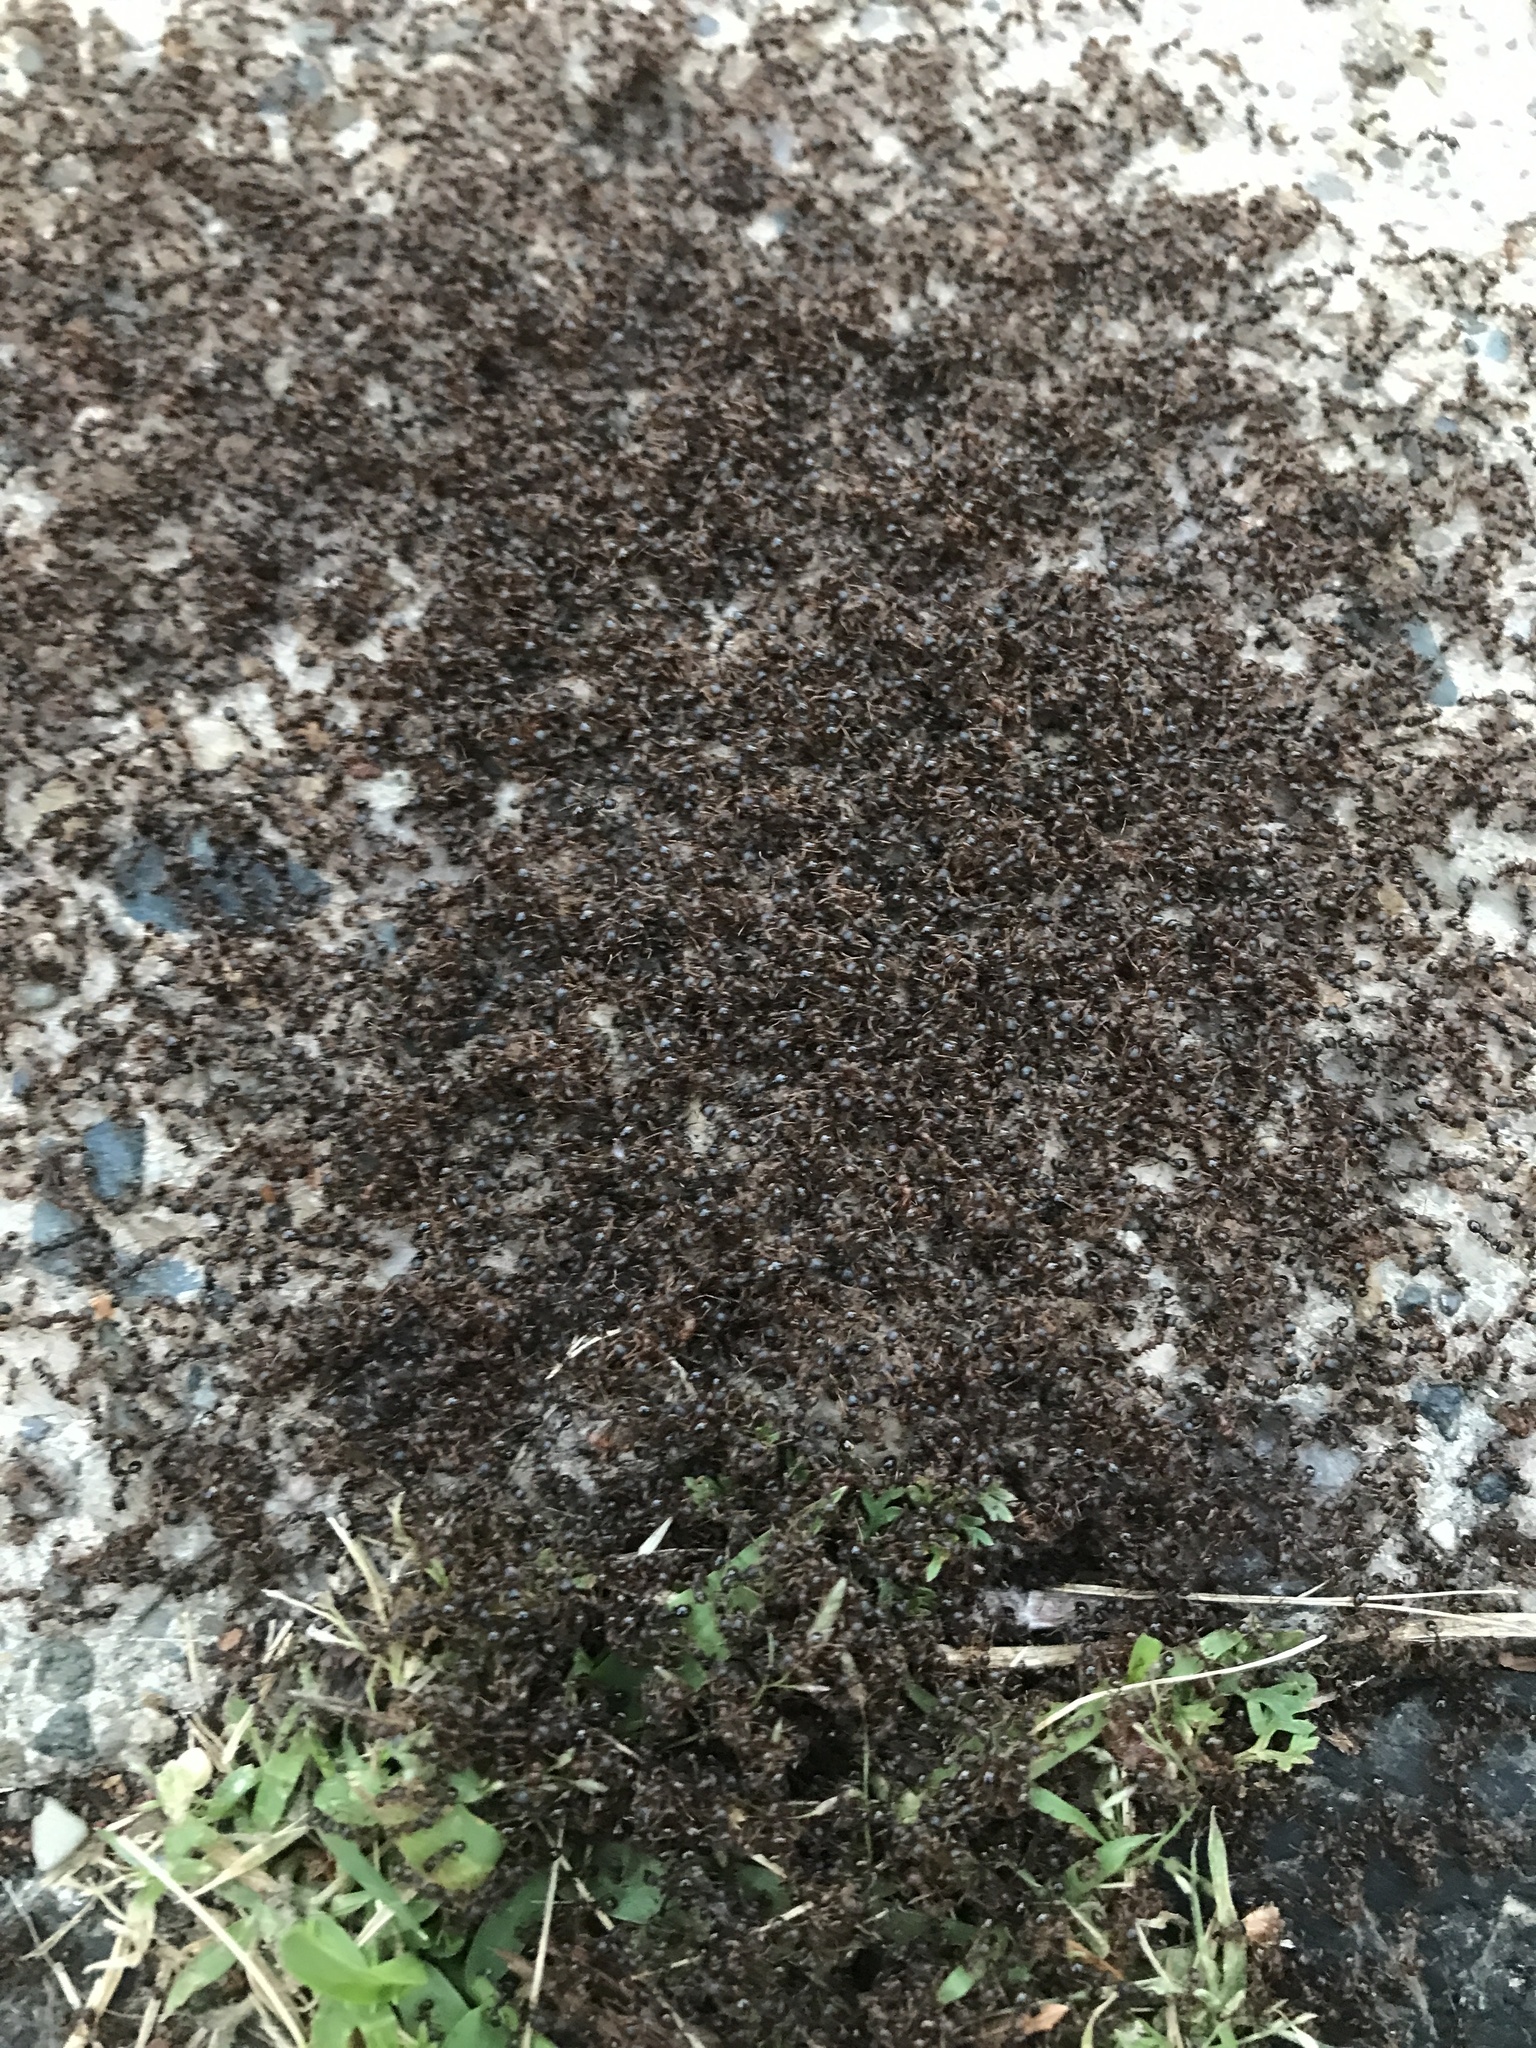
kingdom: Animalia
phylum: Arthropoda
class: Insecta
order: Hymenoptera
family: Formicidae
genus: Tetramorium
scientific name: Tetramorium immigrans
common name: Pavement ant
